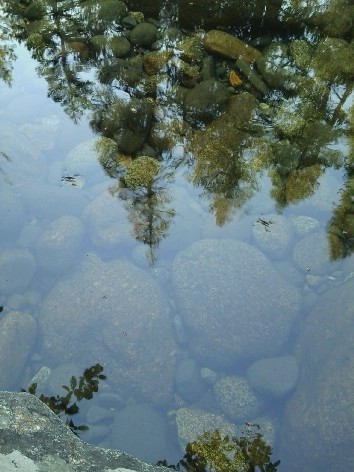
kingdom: Animalia
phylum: Arthropoda
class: Insecta
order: Hemiptera
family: Gerridae
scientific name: Gerridae
